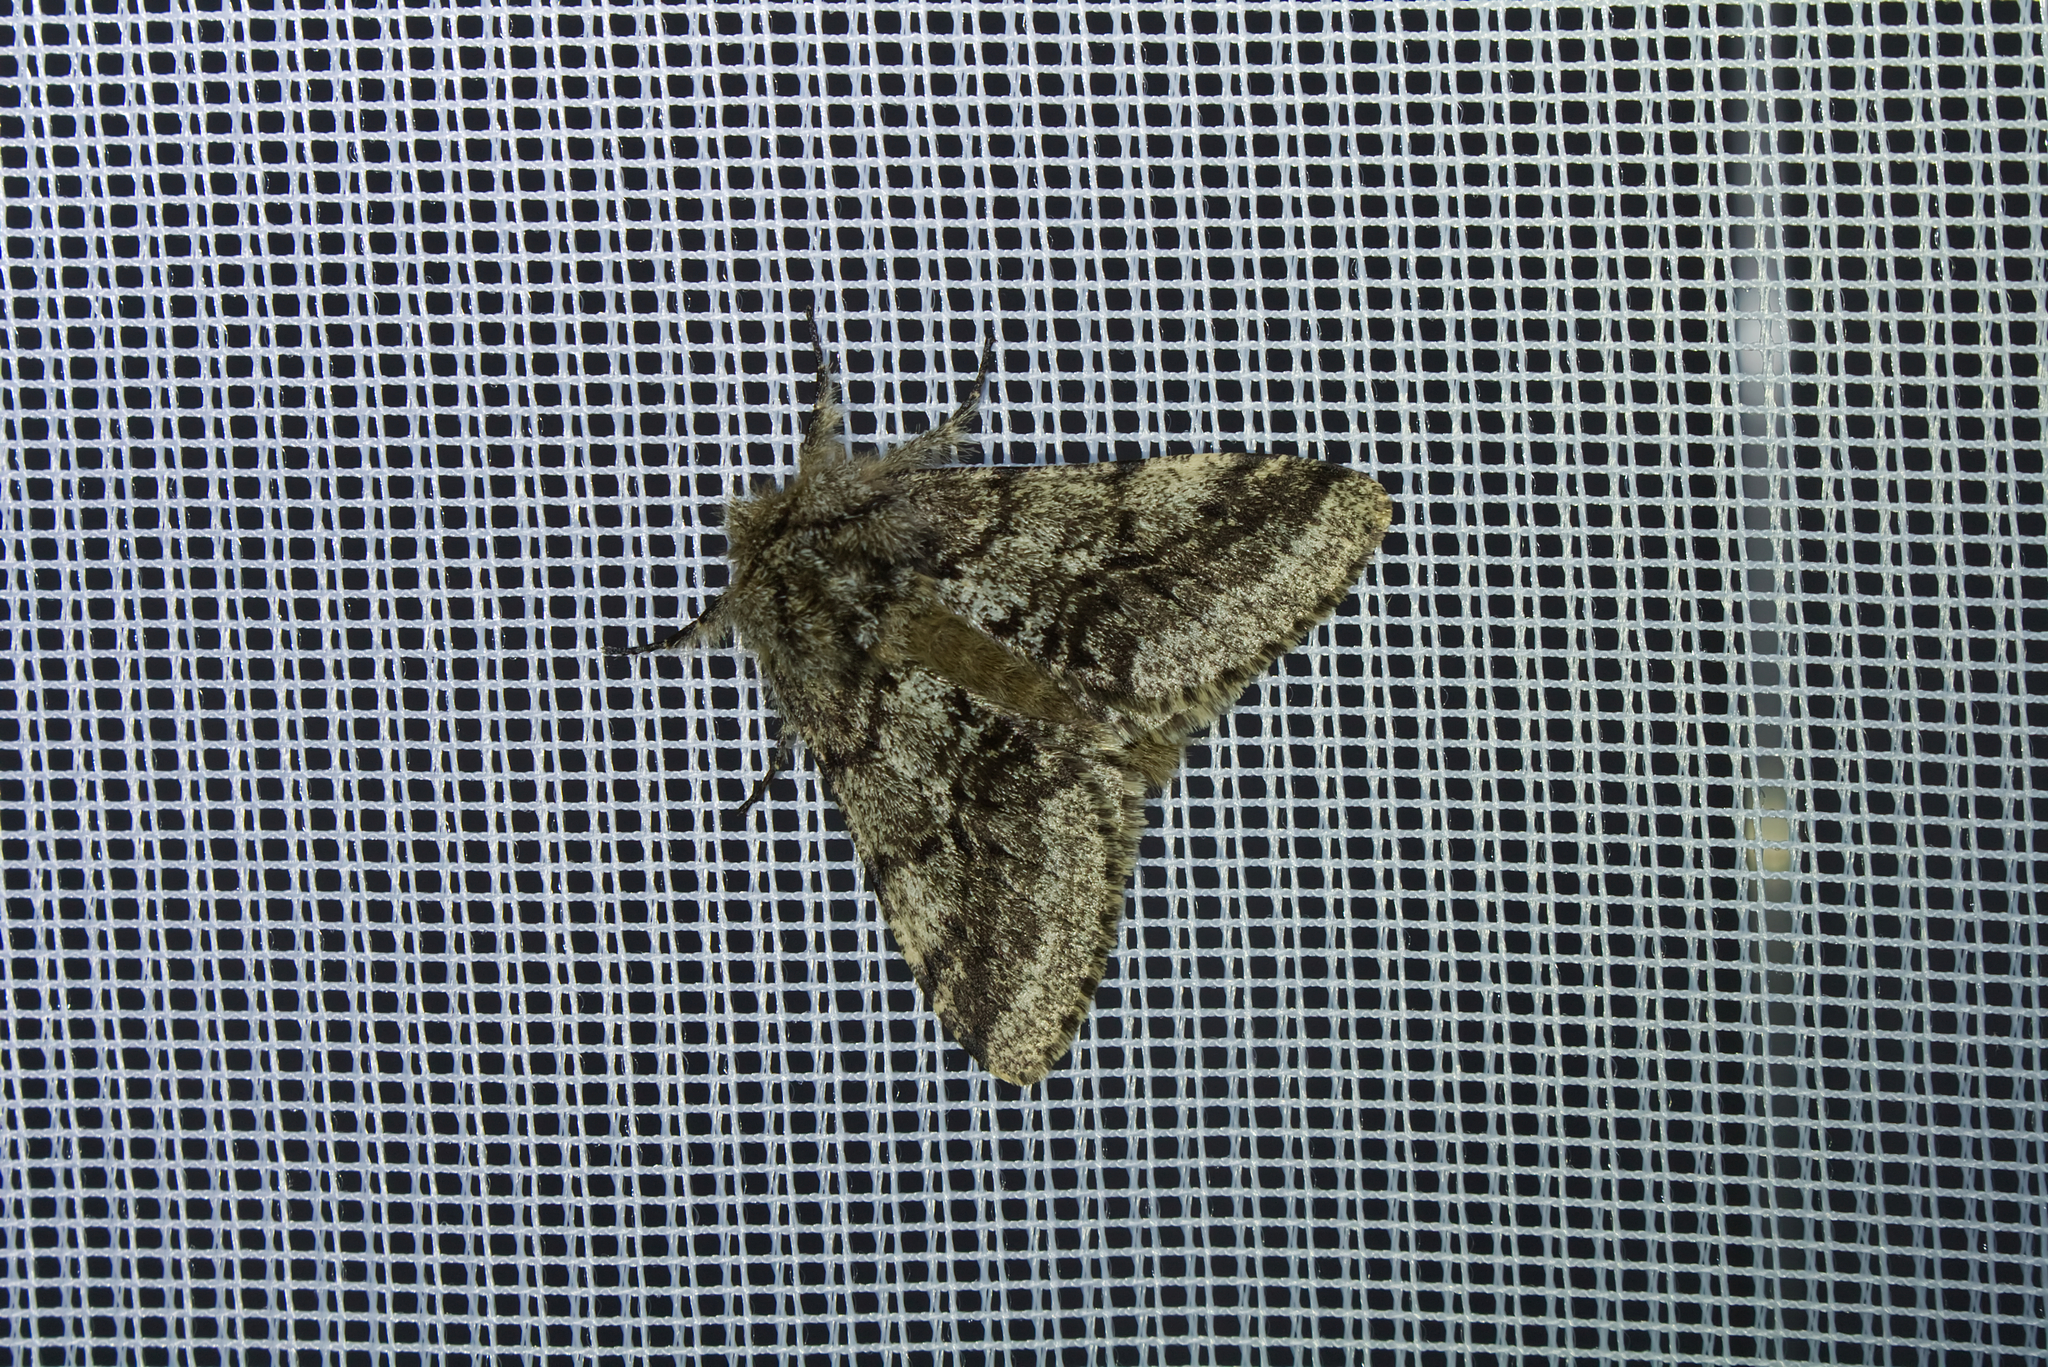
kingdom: Animalia
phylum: Arthropoda
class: Insecta
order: Lepidoptera
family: Geometridae
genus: Lycia
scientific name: Lycia hirtaria
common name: Brindled beauty
